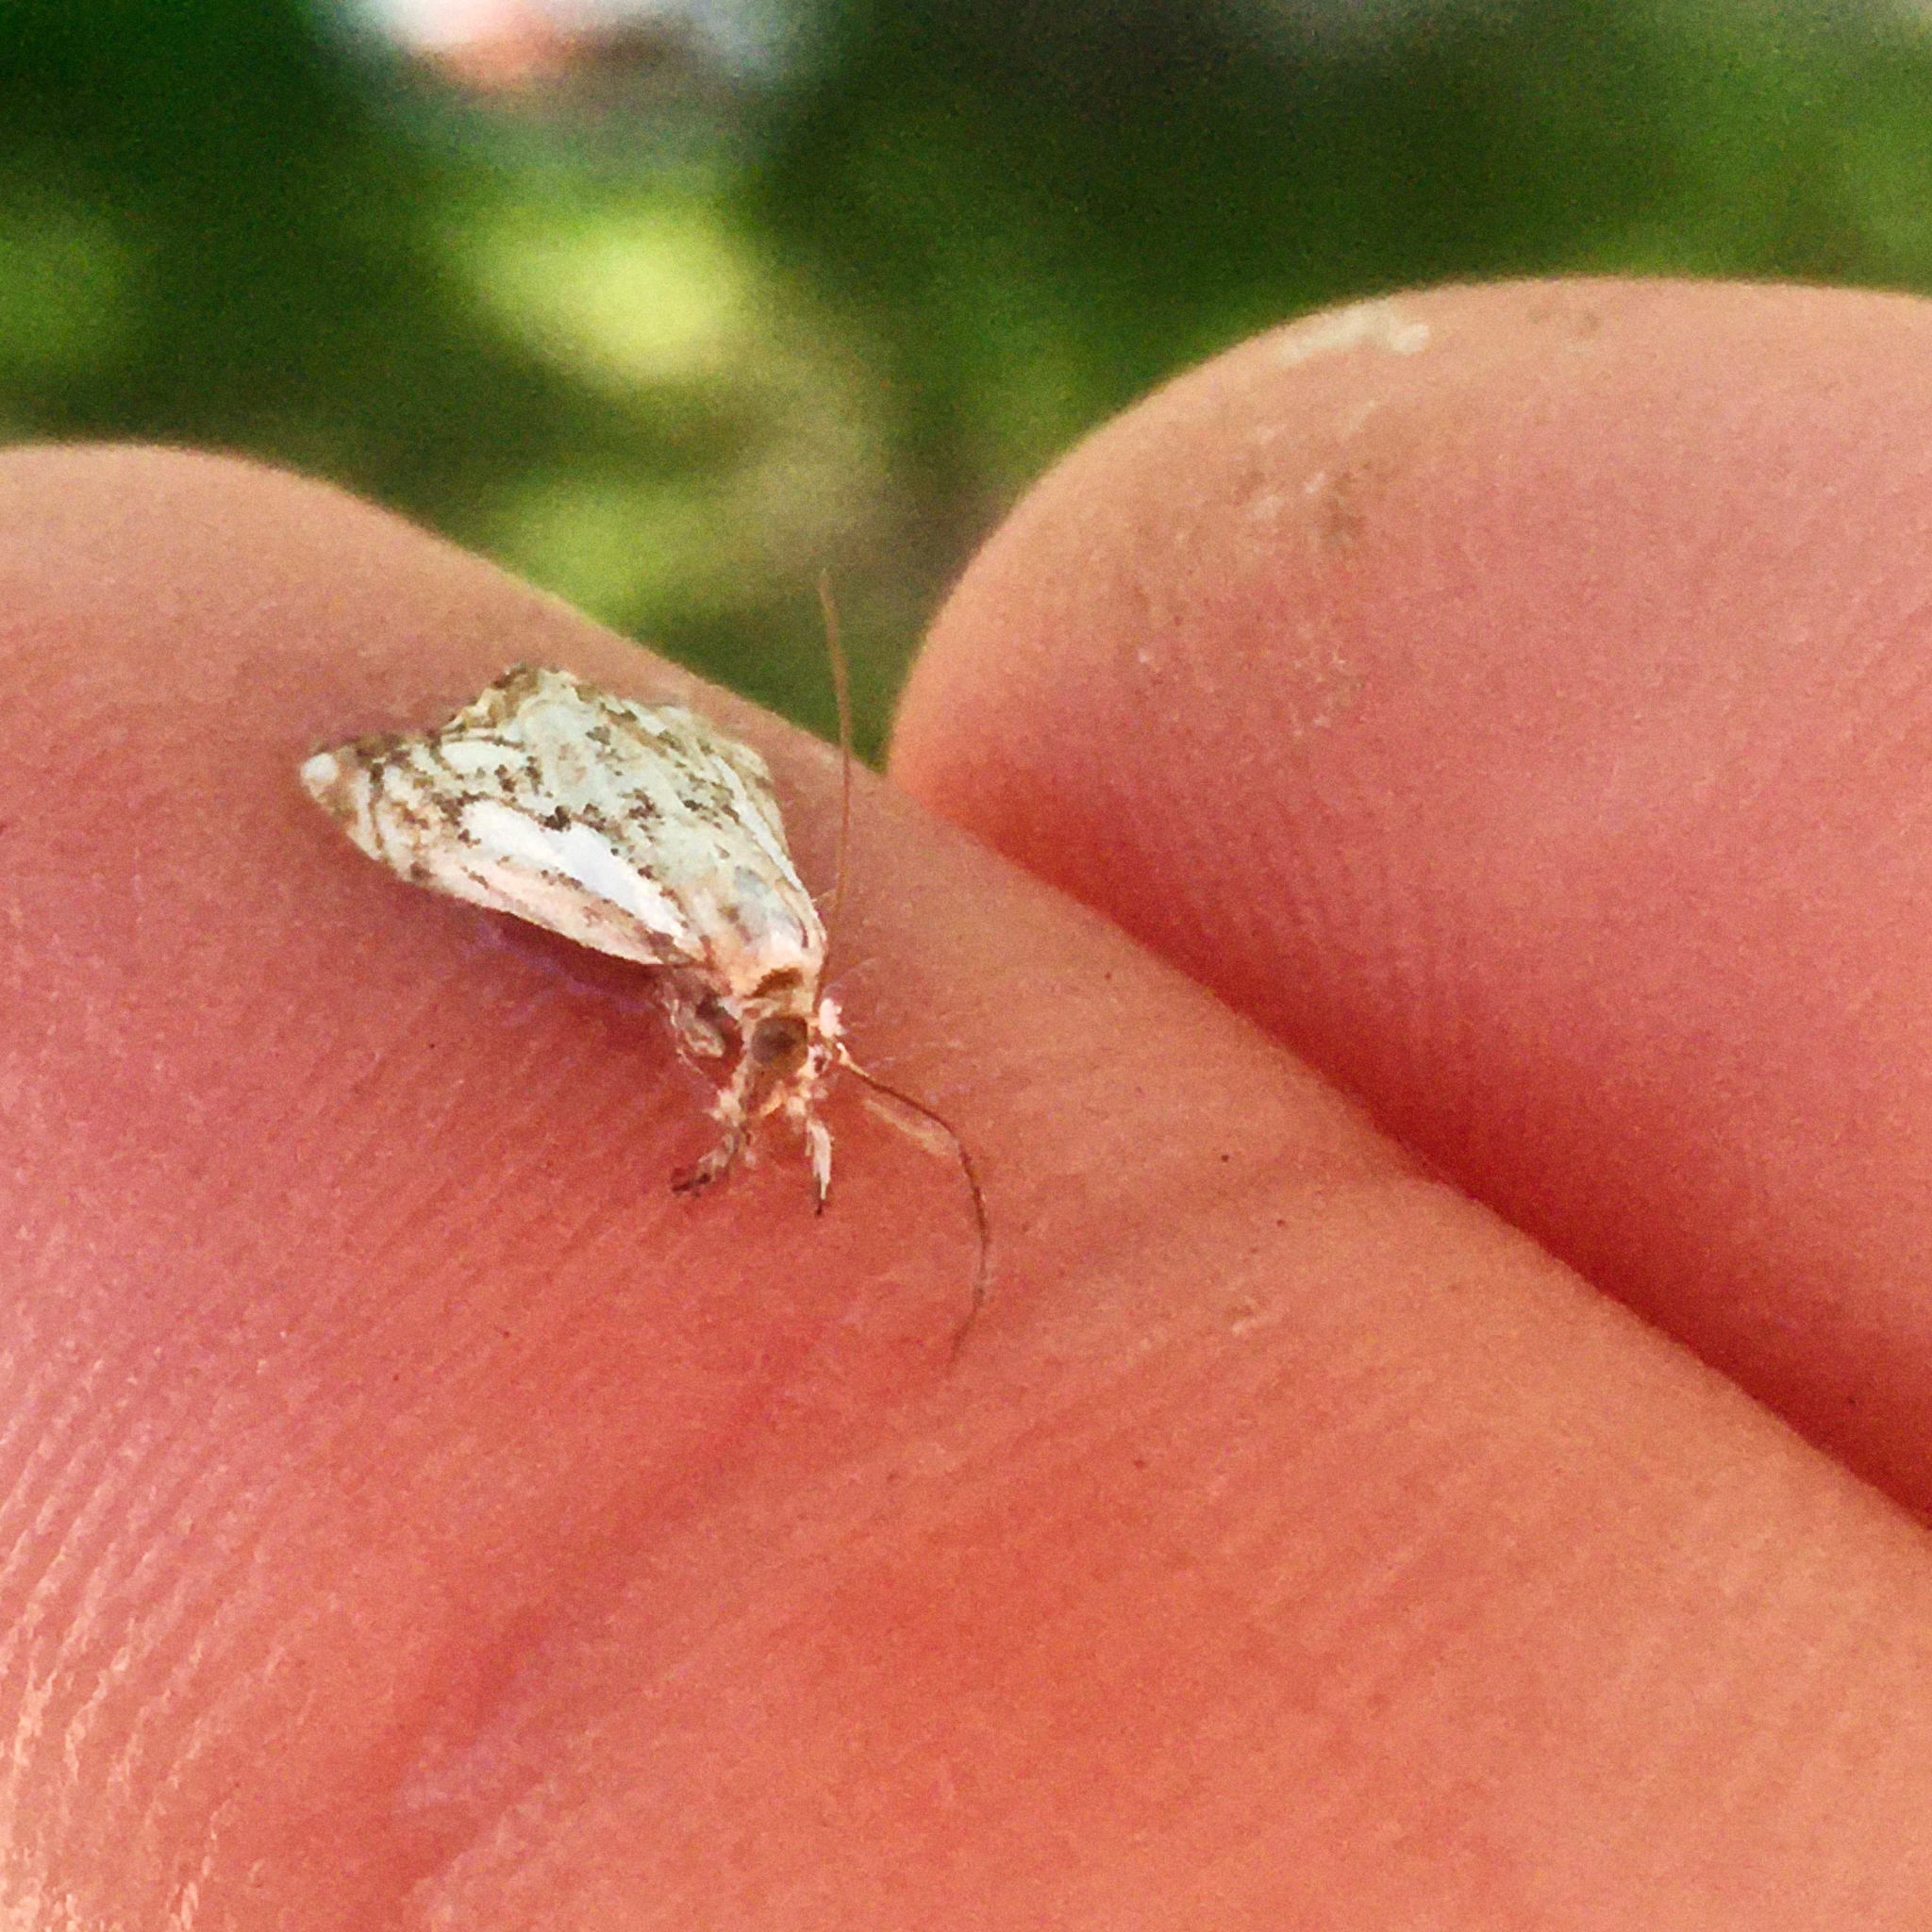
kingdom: Animalia
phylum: Arthropoda
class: Insecta
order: Lepidoptera
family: Crambidae
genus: Catoptria
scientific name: Catoptria falsella
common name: Chequered grass-veneer
